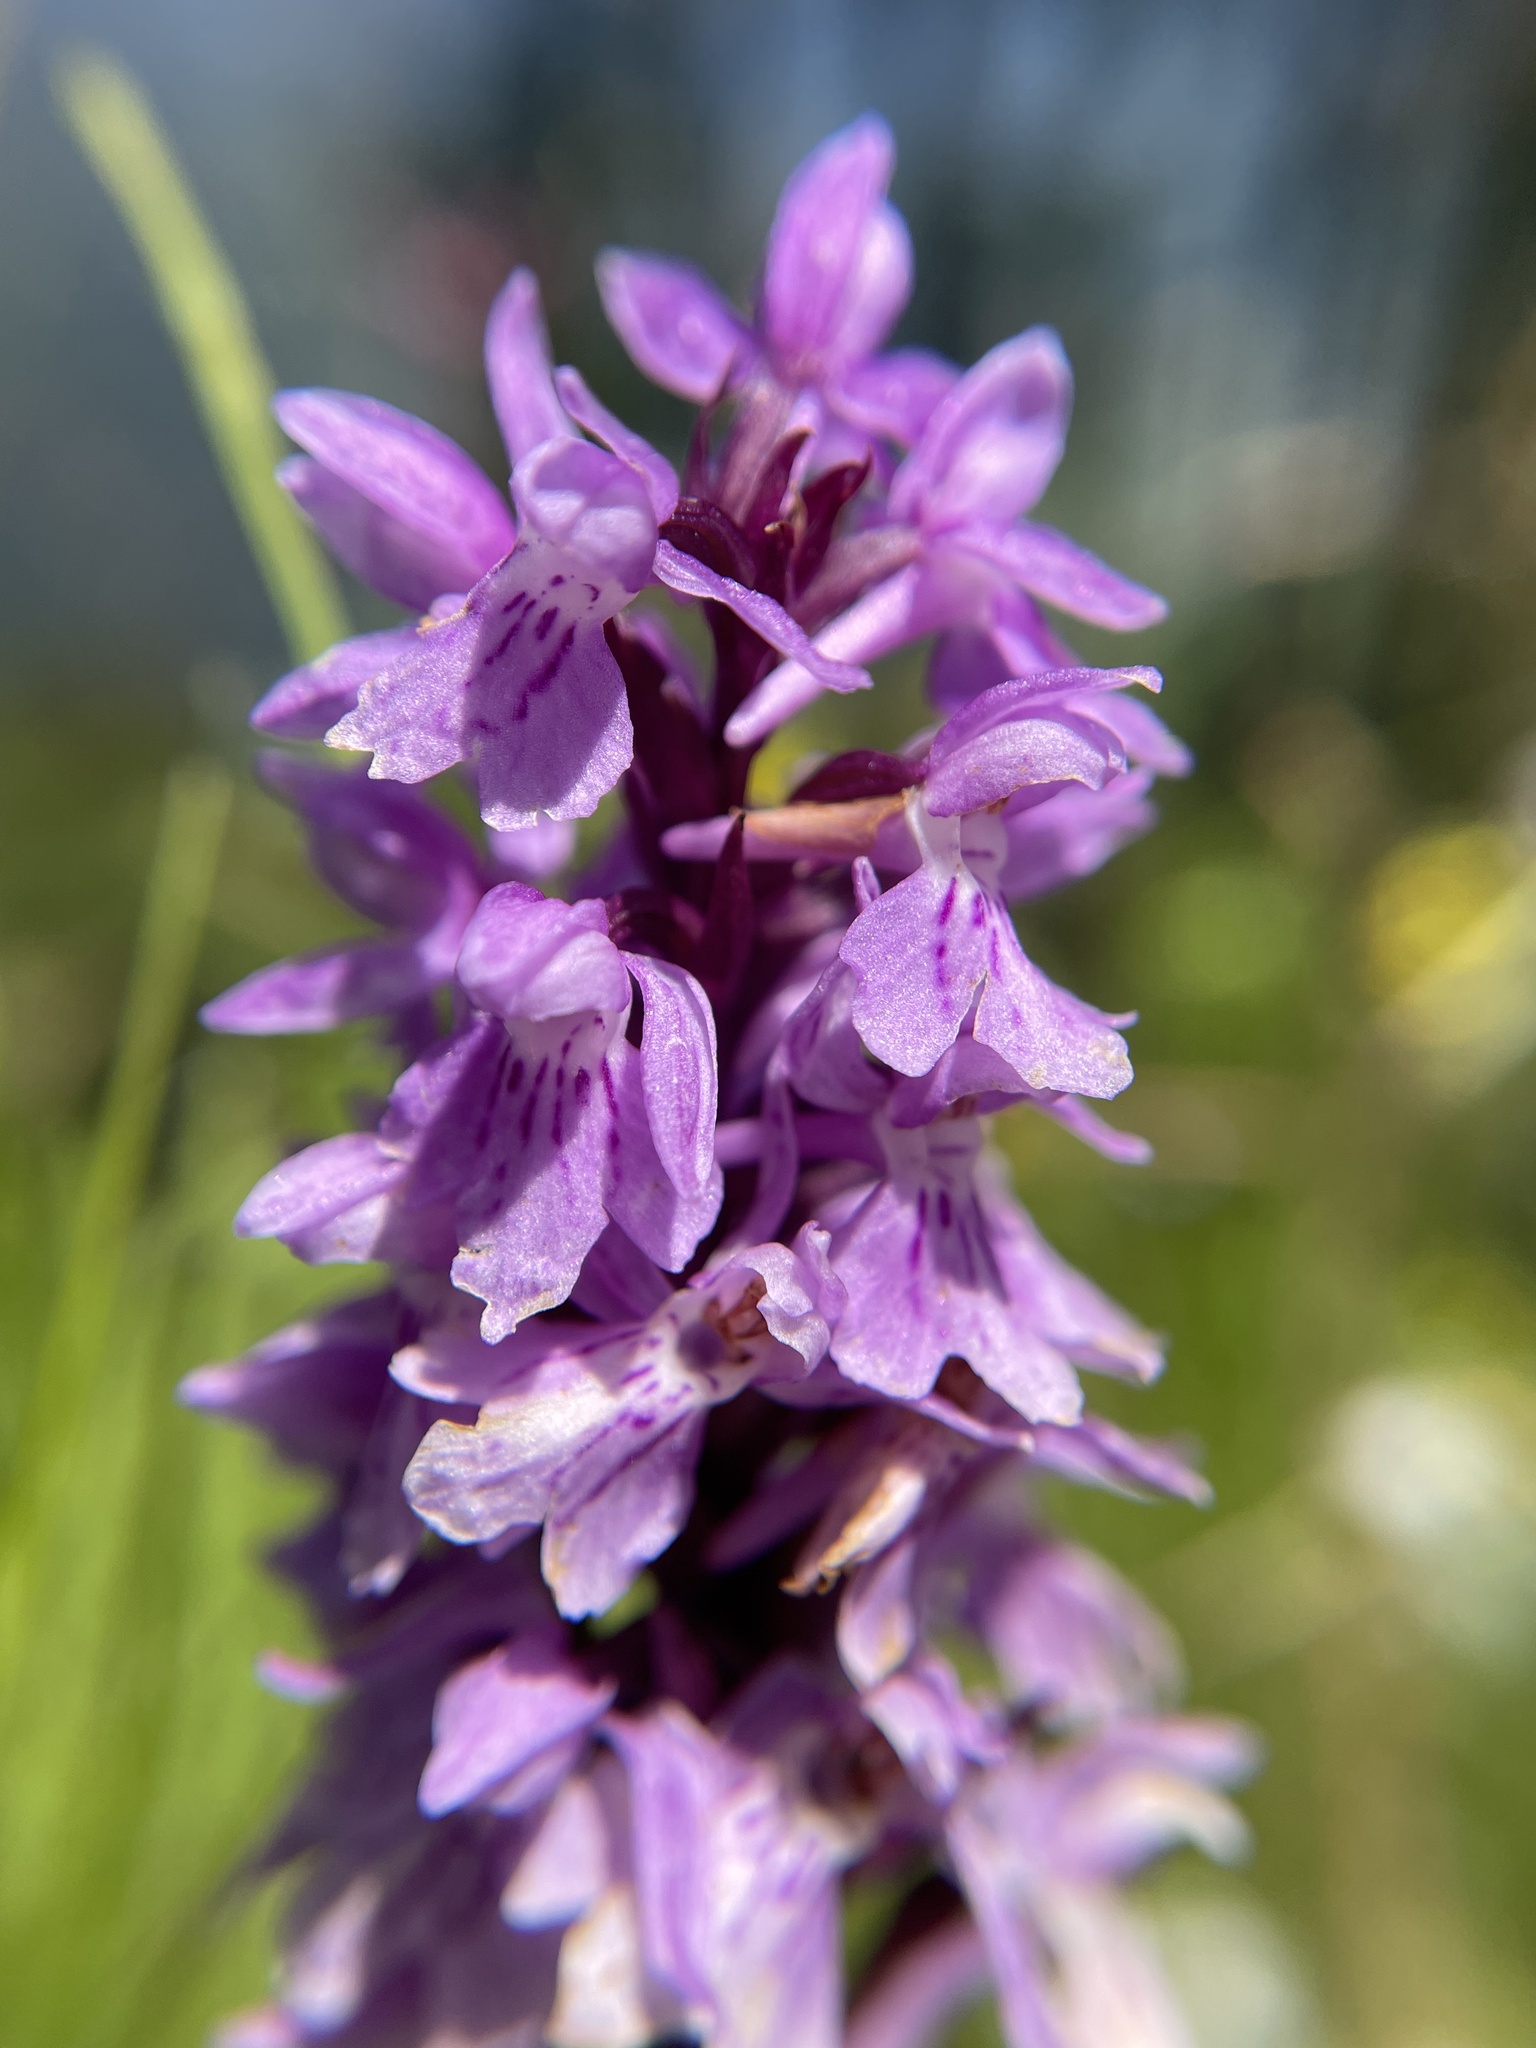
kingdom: Plantae
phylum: Tracheophyta
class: Liliopsida
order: Asparagales
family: Orchidaceae
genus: Dactylorhiza
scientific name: Dactylorhiza maculata
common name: Heath spotted-orchid
